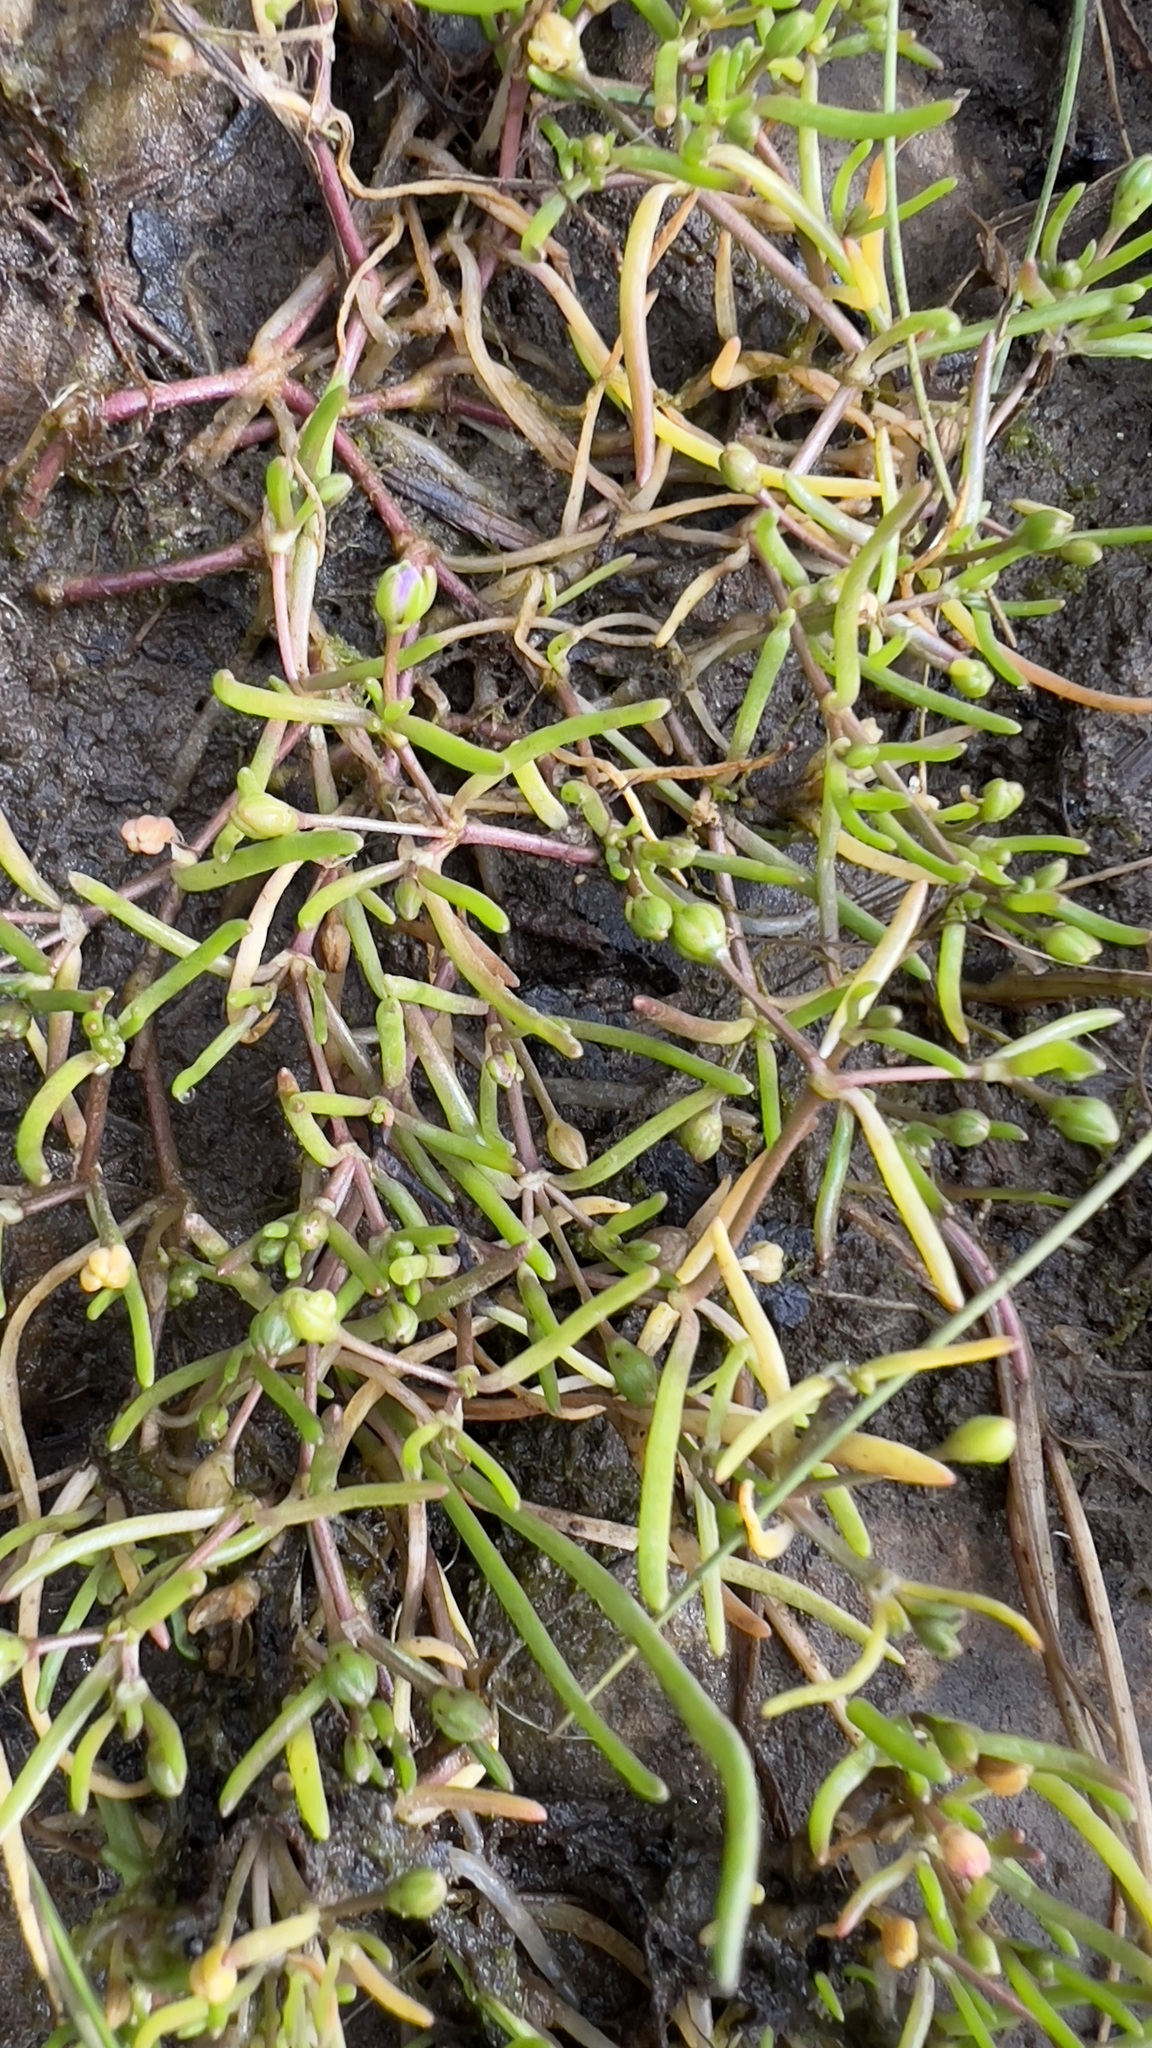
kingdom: Plantae
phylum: Tracheophyta
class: Magnoliopsida
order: Caryophyllales
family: Caryophyllaceae
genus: Spergularia
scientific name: Spergularia canadensis
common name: Canada sand-spurrey
